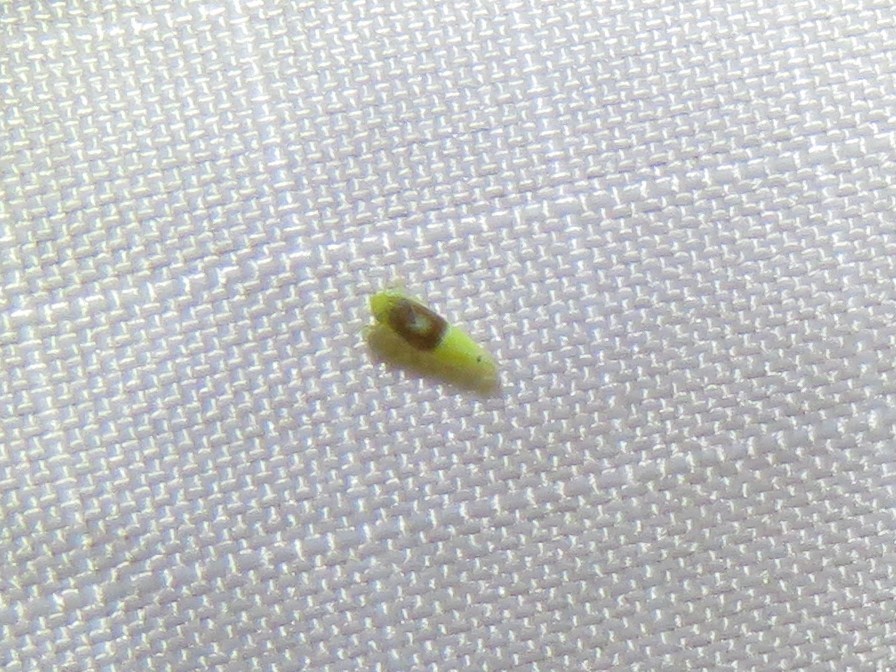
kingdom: Animalia
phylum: Arthropoda
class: Insecta
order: Hemiptera
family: Cicadellidae
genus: Eratoneura
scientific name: Eratoneura affinis
